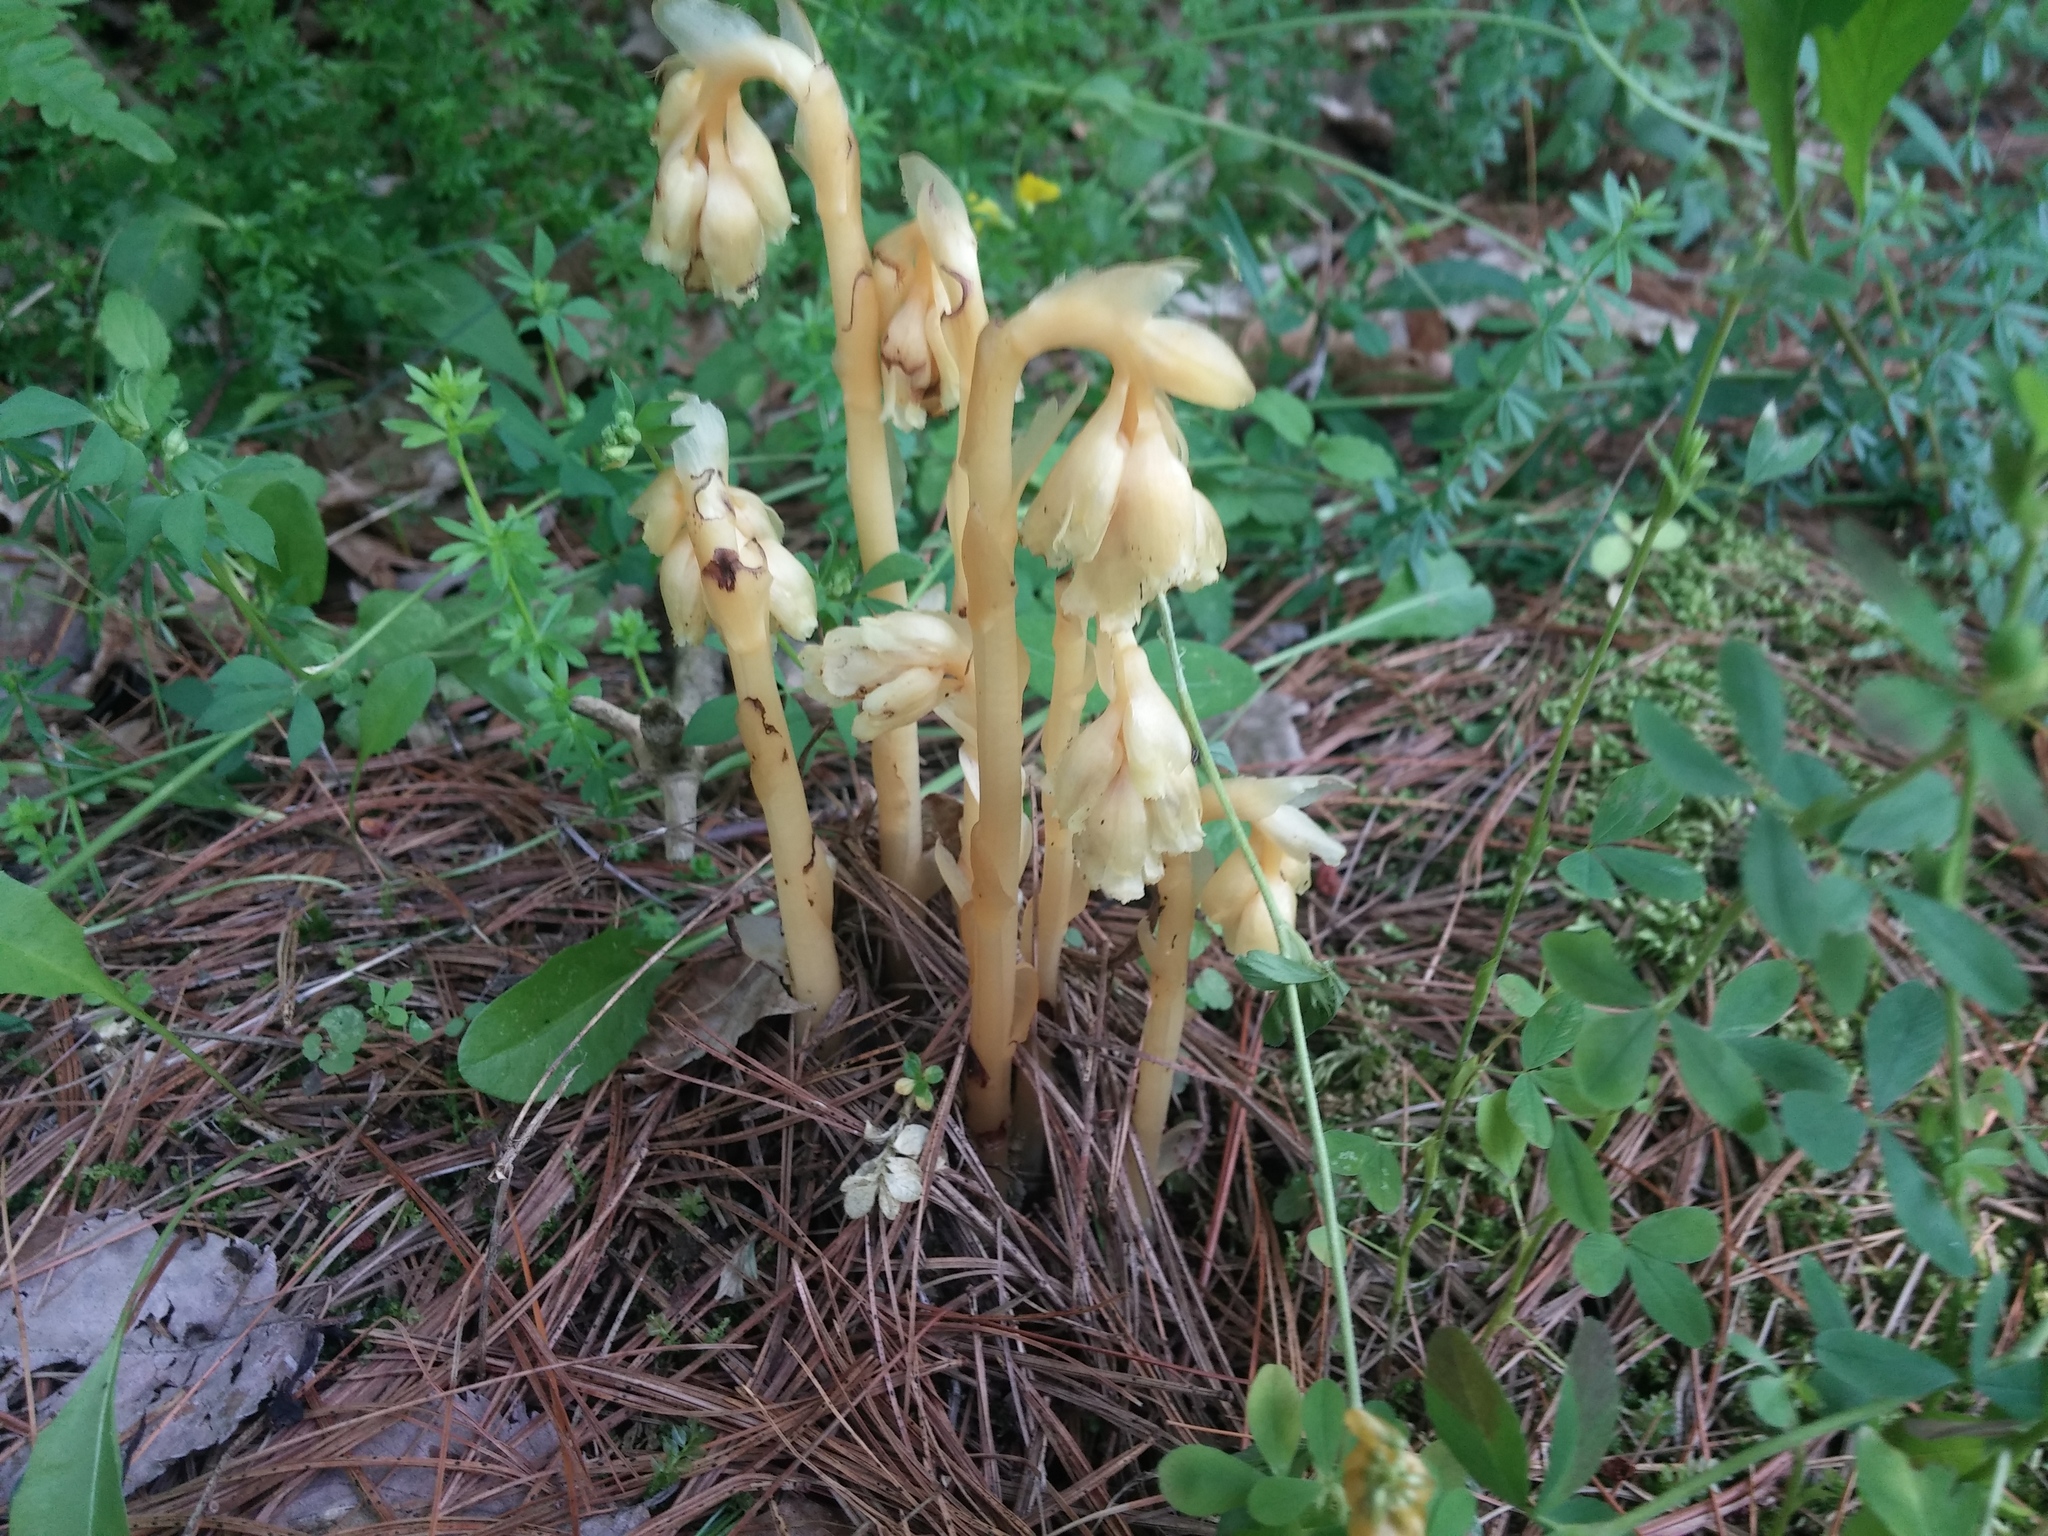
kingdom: Plantae
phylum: Tracheophyta
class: Magnoliopsida
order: Ericales
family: Ericaceae
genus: Hypopitys
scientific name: Hypopitys monotropa
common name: Yellow bird's-nest
